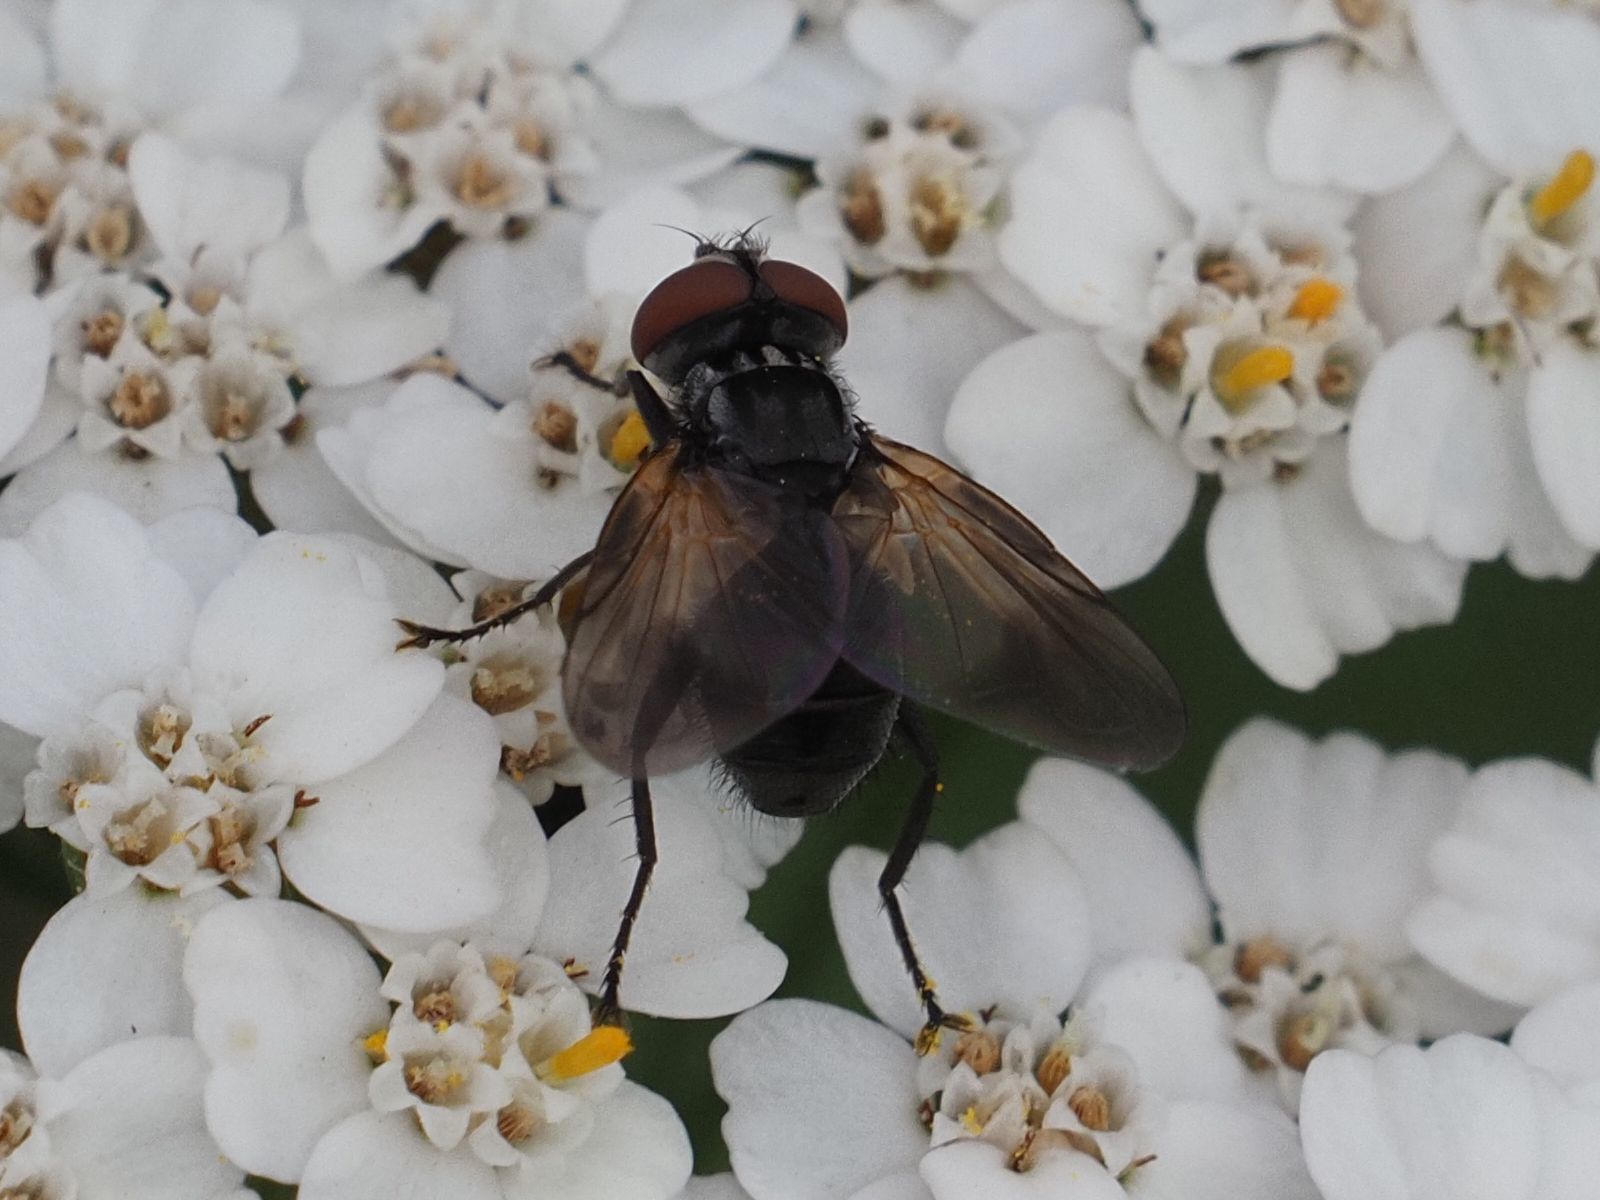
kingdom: Animalia
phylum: Arthropoda
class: Insecta
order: Diptera
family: Tachinidae
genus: Phasia
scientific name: Phasia obesa
